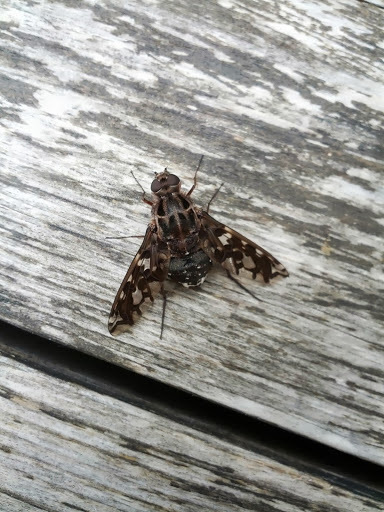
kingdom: Animalia
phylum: Arthropoda
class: Insecta
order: Diptera
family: Bombyliidae
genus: Xenox
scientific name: Xenox tigrinus
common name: Tiger bee fly
